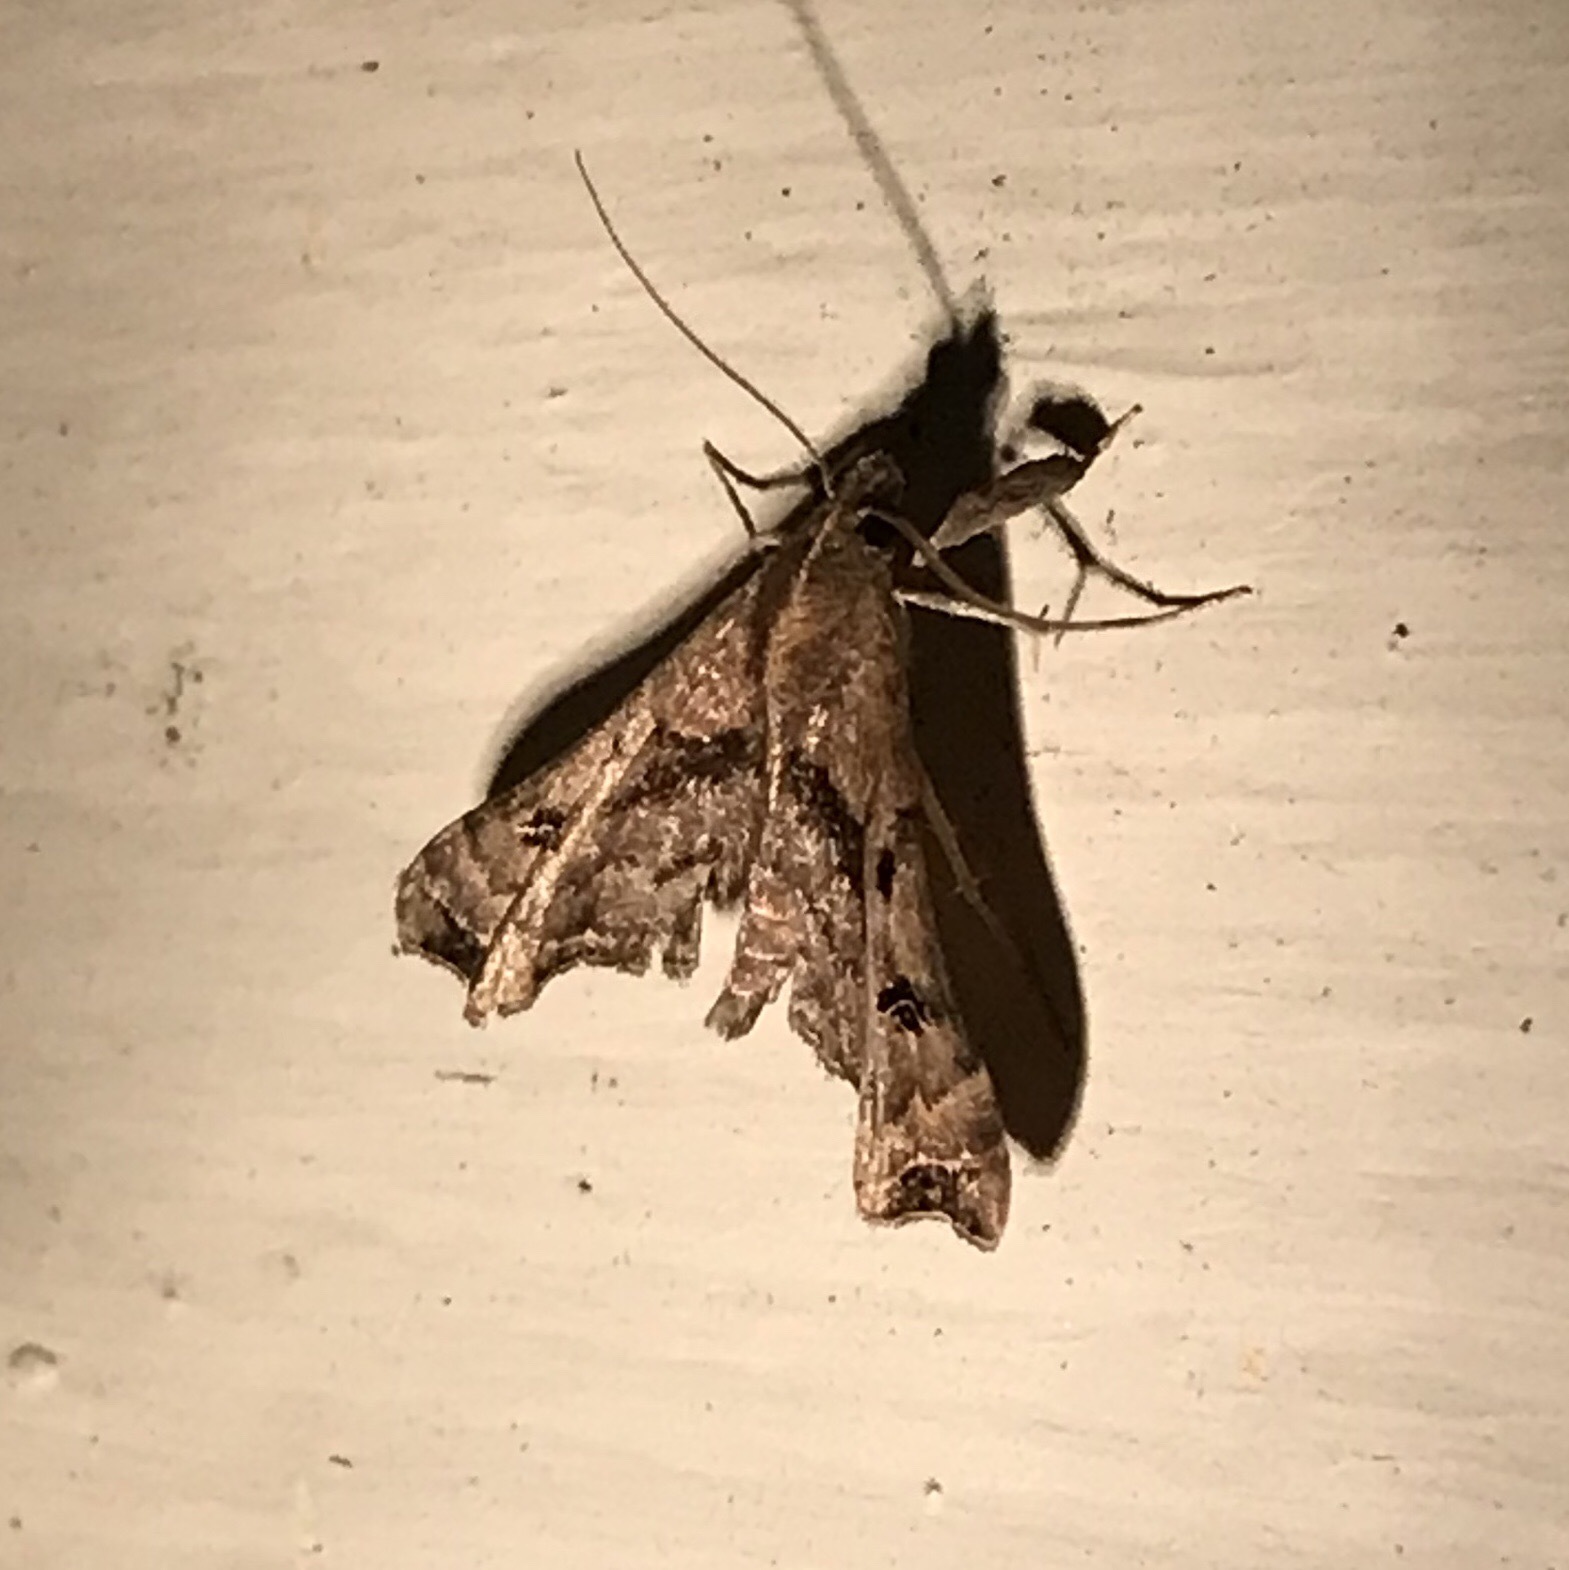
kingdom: Animalia
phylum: Arthropoda
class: Insecta
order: Lepidoptera
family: Erebidae
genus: Palthis
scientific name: Palthis asopialis
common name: Faint-spotted palthis moth
